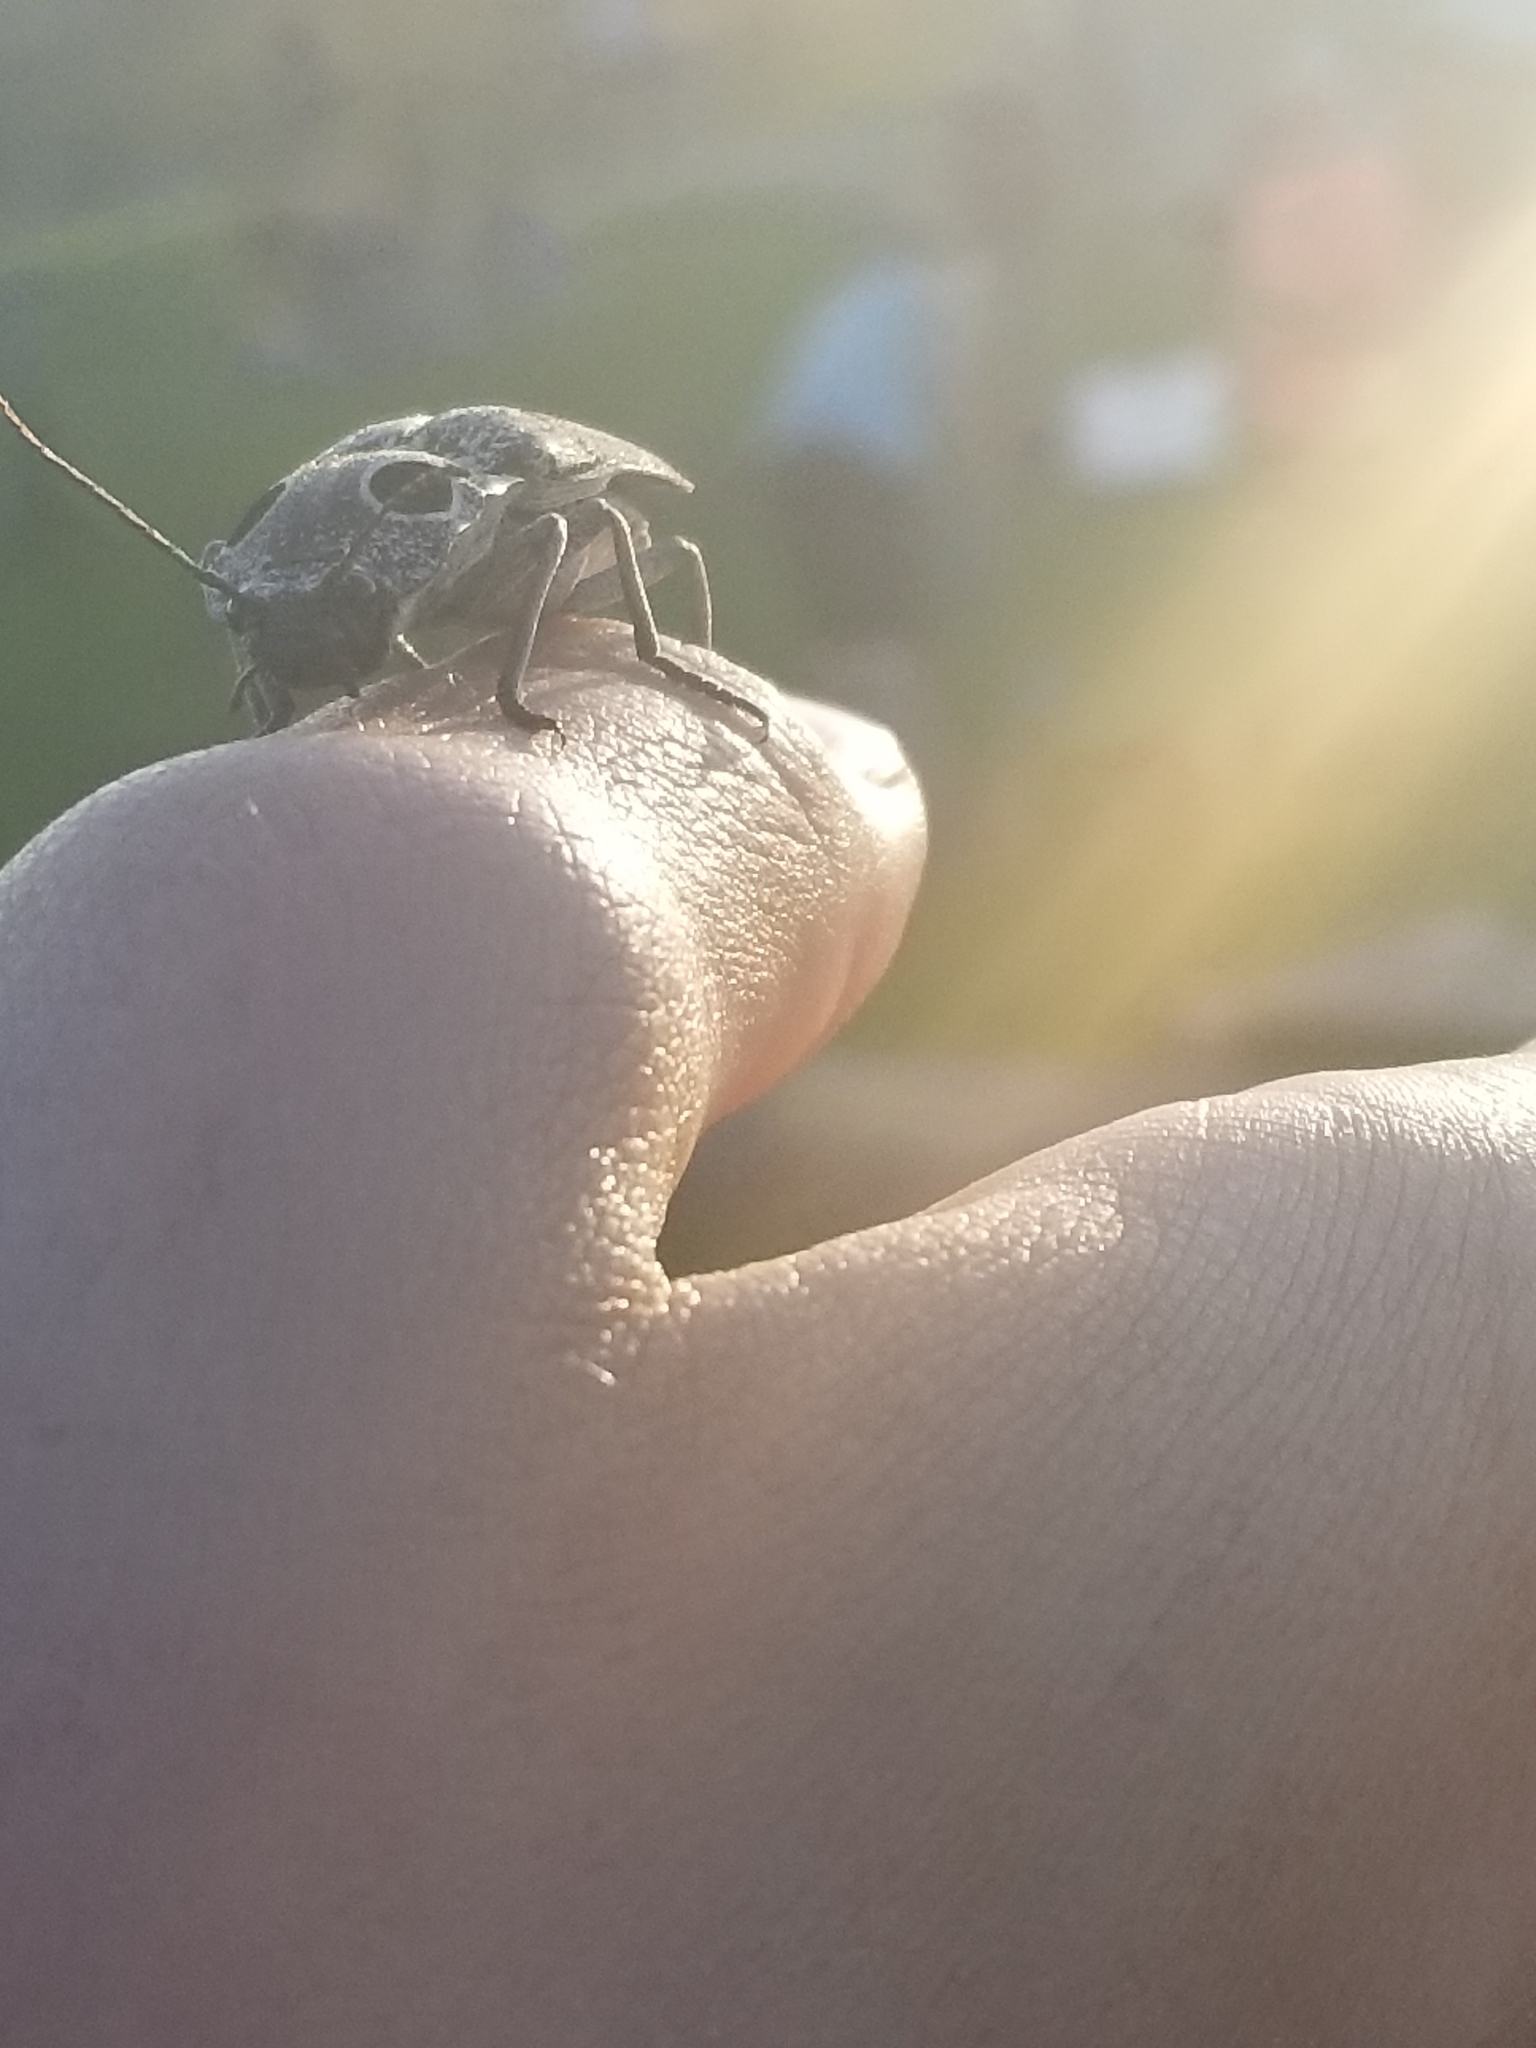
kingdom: Animalia
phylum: Arthropoda
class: Insecta
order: Coleoptera
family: Elateridae
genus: Alaus
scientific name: Alaus oculatus
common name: Eastern eyed click beetle
